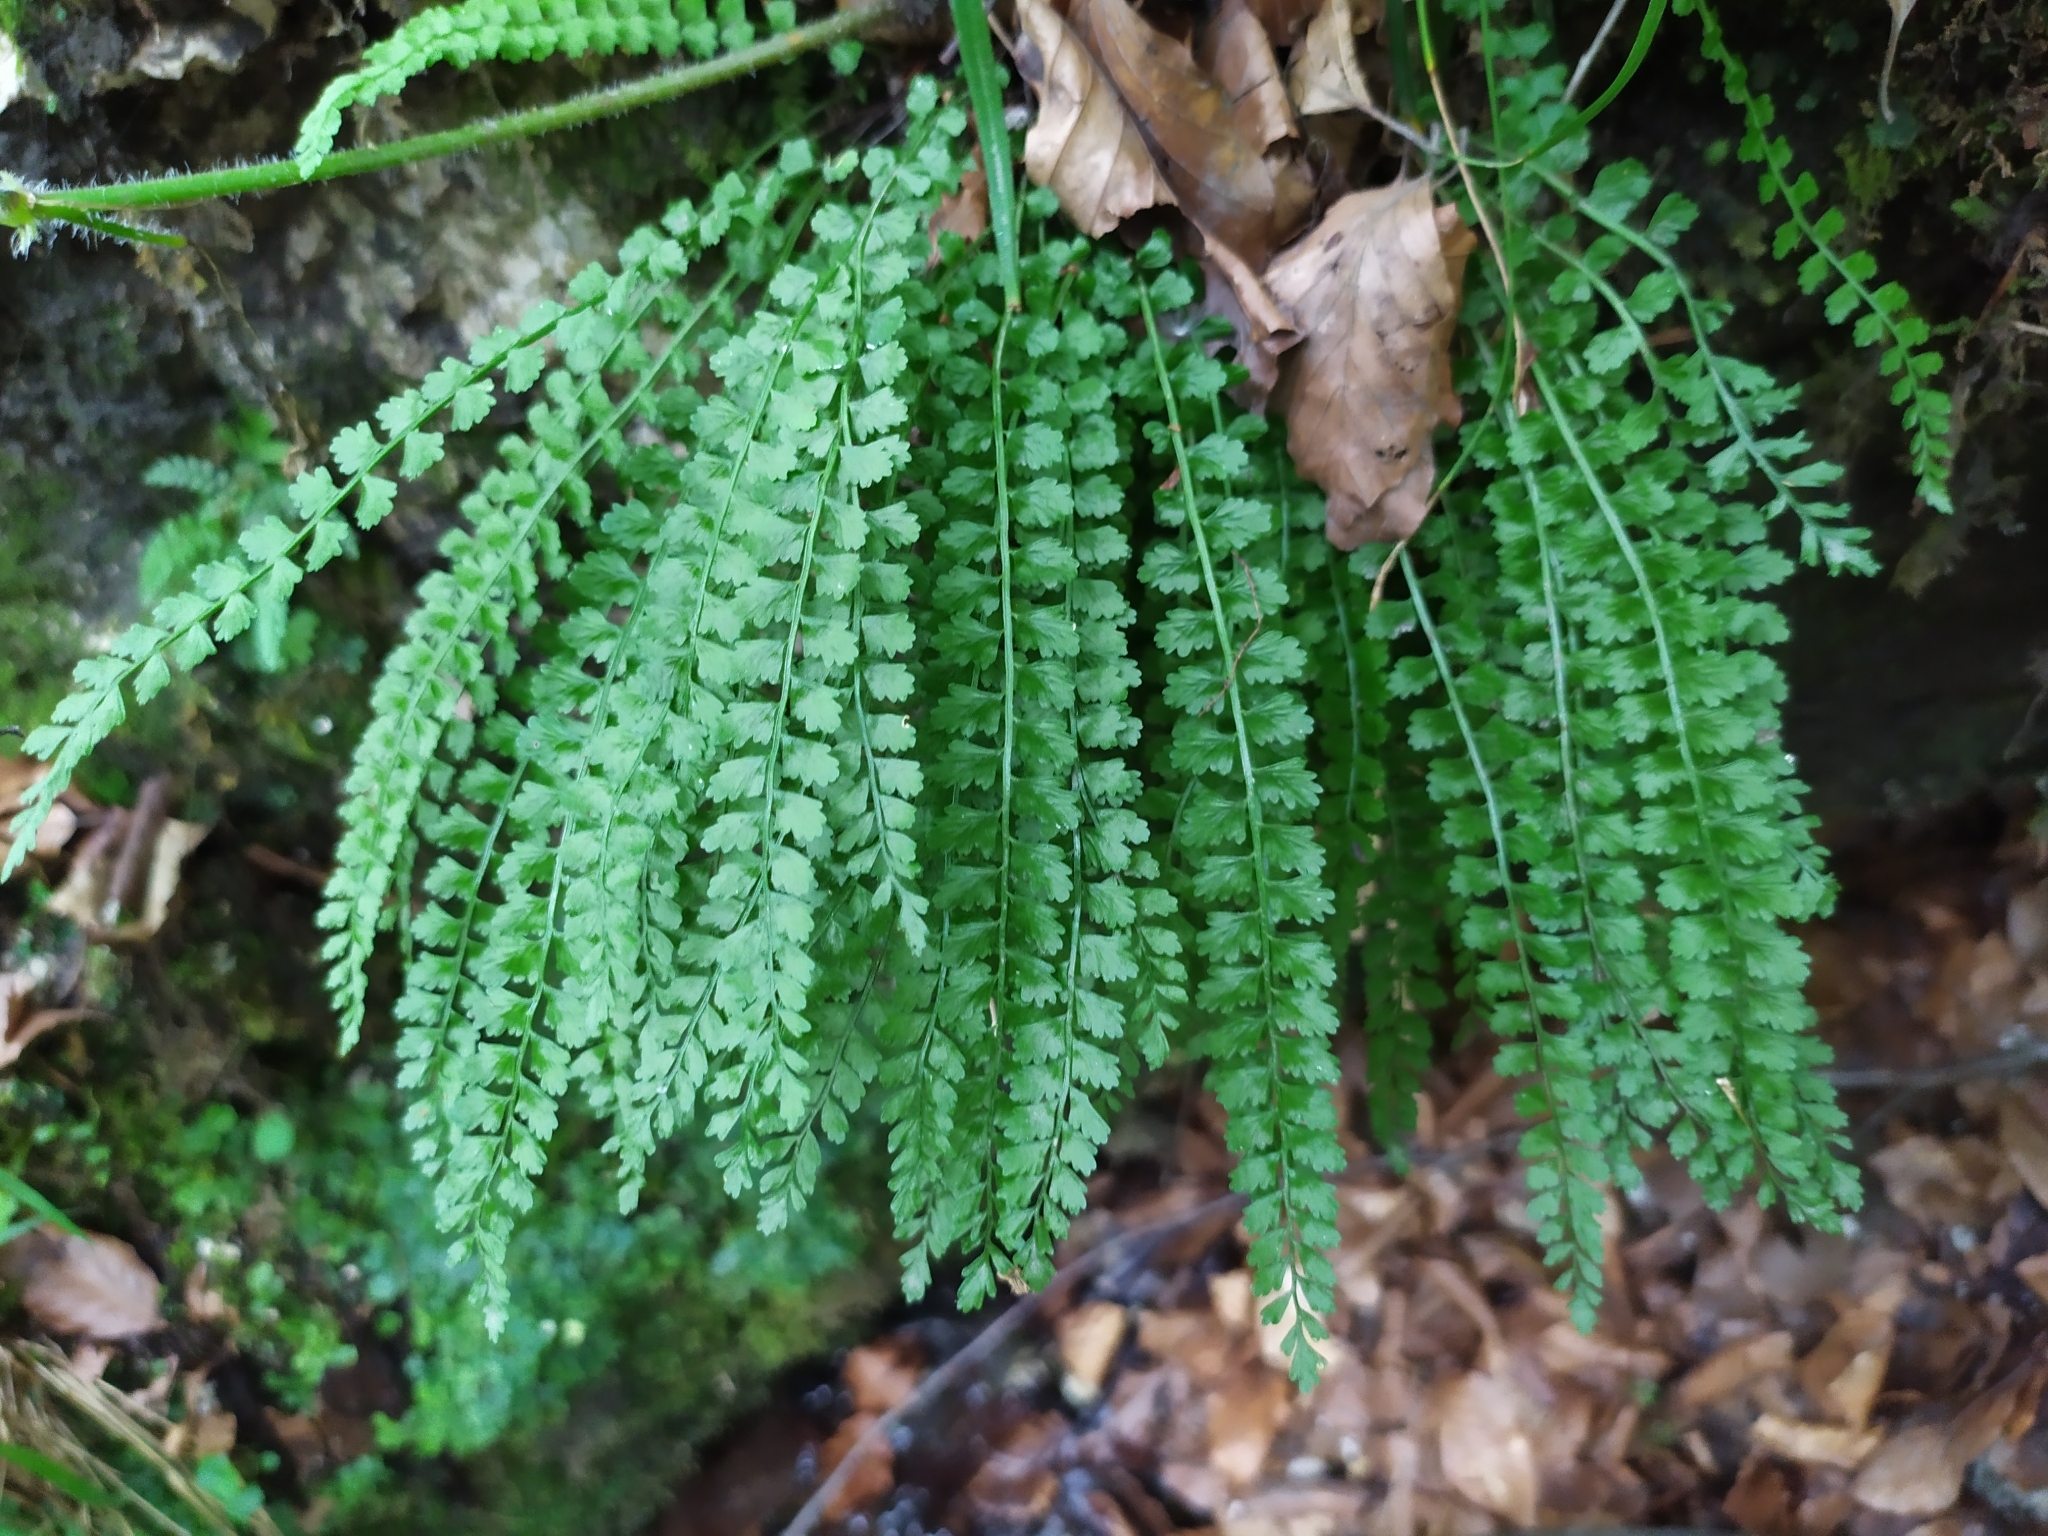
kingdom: Plantae
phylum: Tracheophyta
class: Polypodiopsida
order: Polypodiales
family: Aspleniaceae
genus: Asplenium
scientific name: Asplenium viride
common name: Green spleenwort
